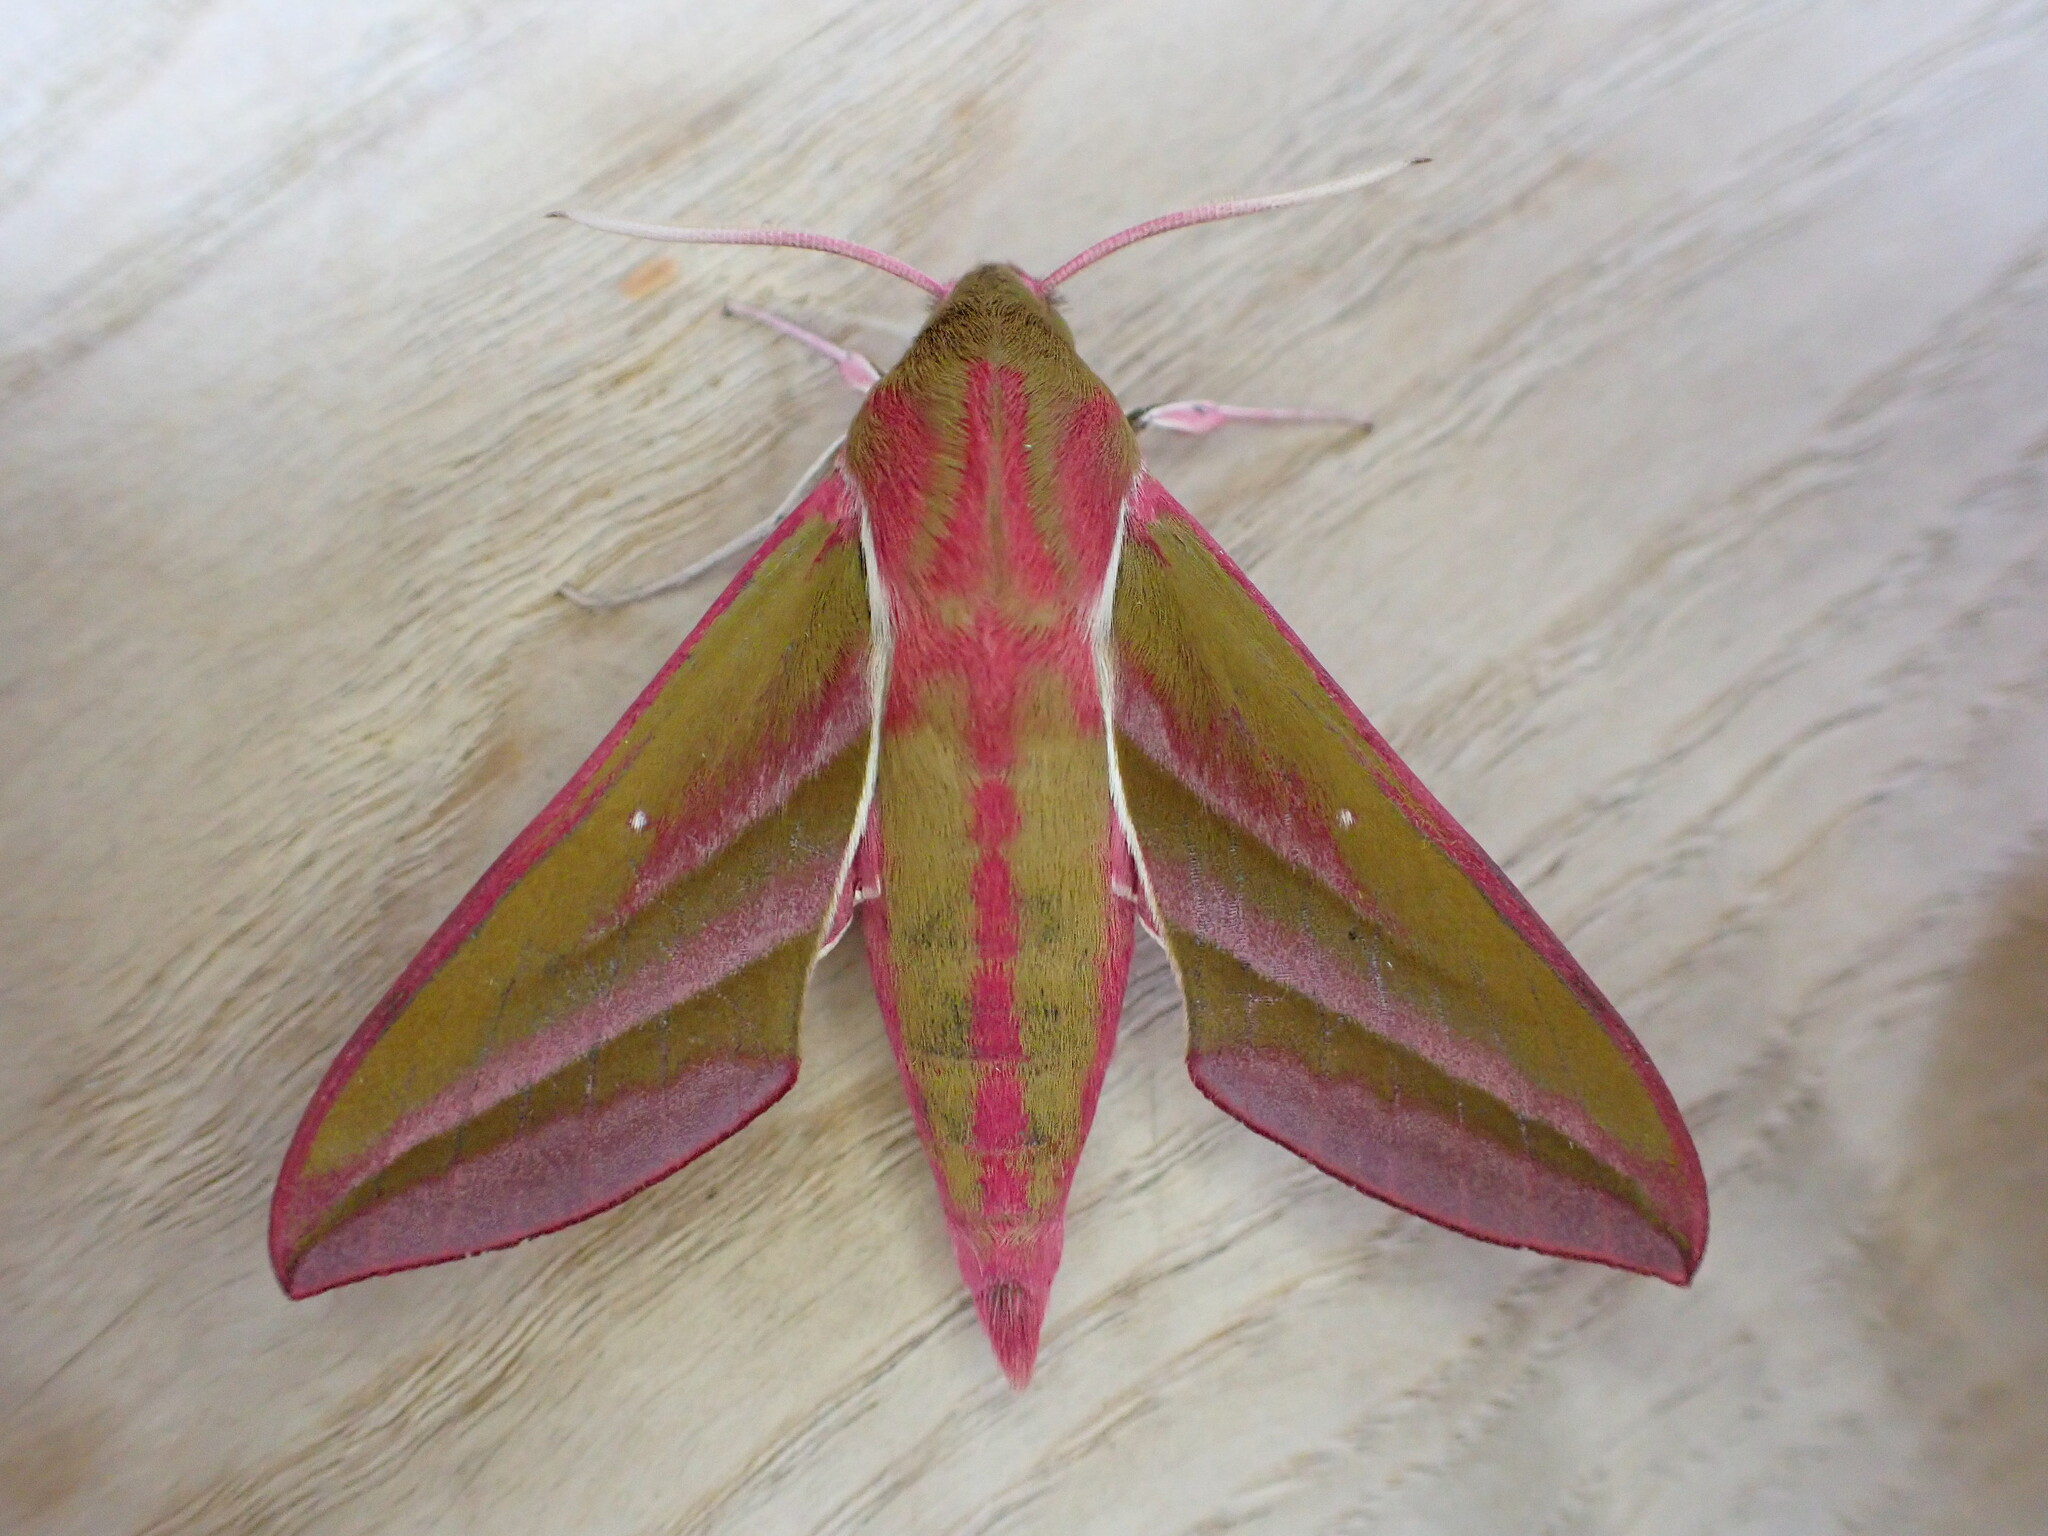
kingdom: Animalia
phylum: Arthropoda
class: Insecta
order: Lepidoptera
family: Sphingidae
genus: Deilephila
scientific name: Deilephila elpenor
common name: Elephant hawk-moth
